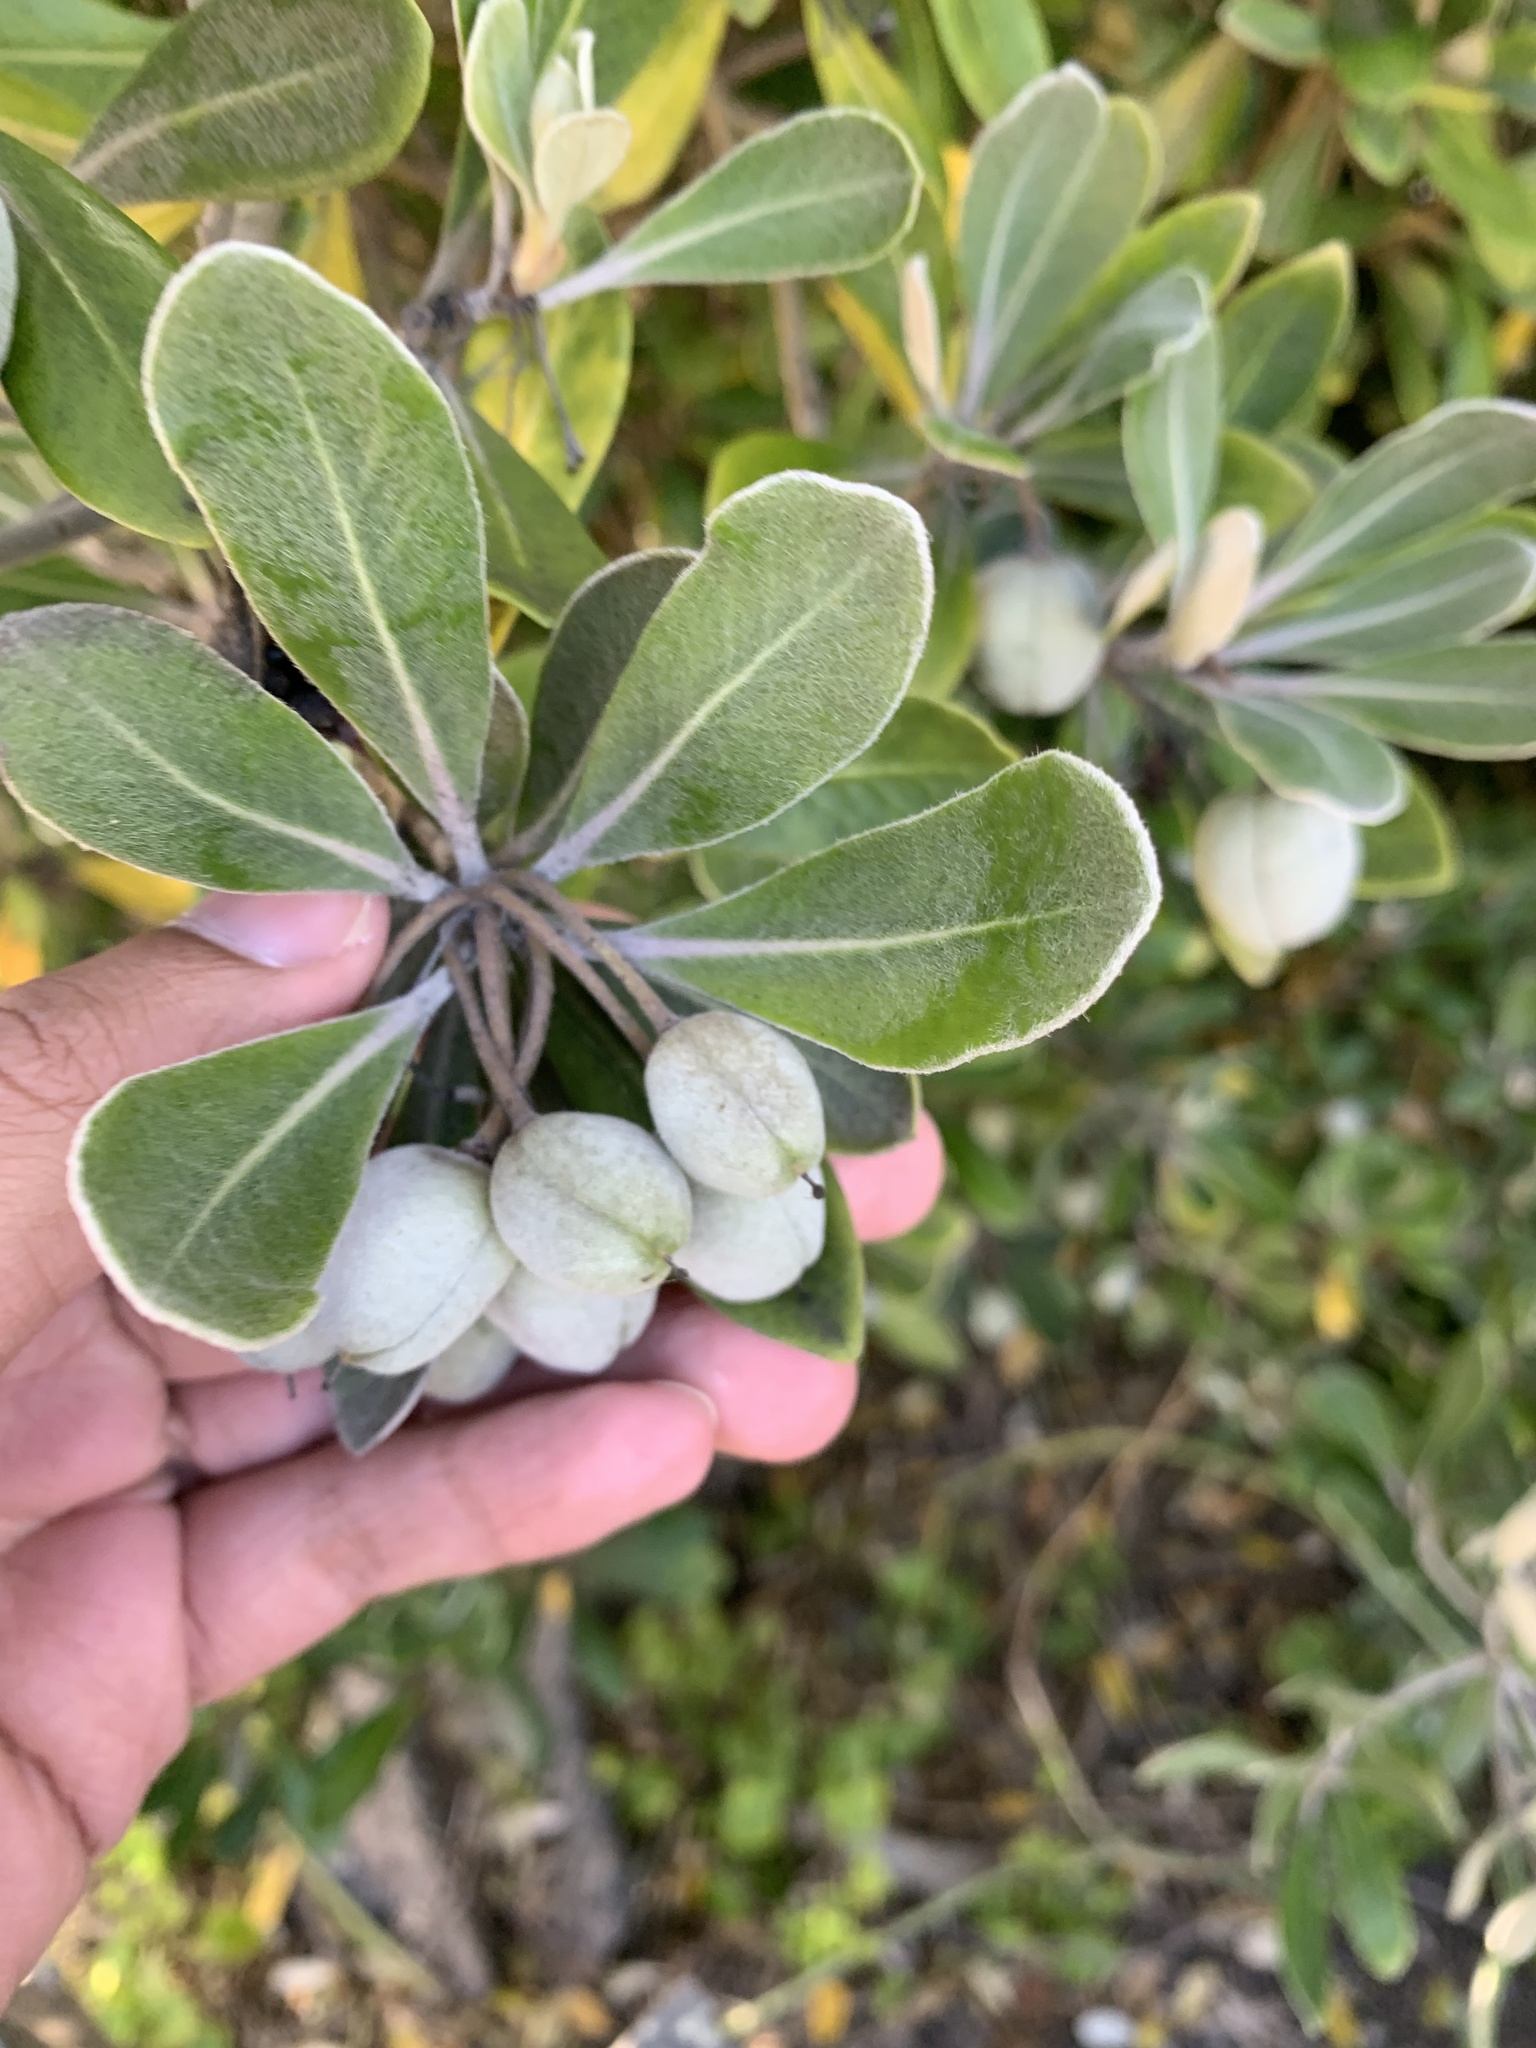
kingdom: Plantae
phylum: Tracheophyta
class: Magnoliopsida
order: Apiales
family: Pittosporaceae
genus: Pittosporum
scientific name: Pittosporum crassifolium
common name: Karo
